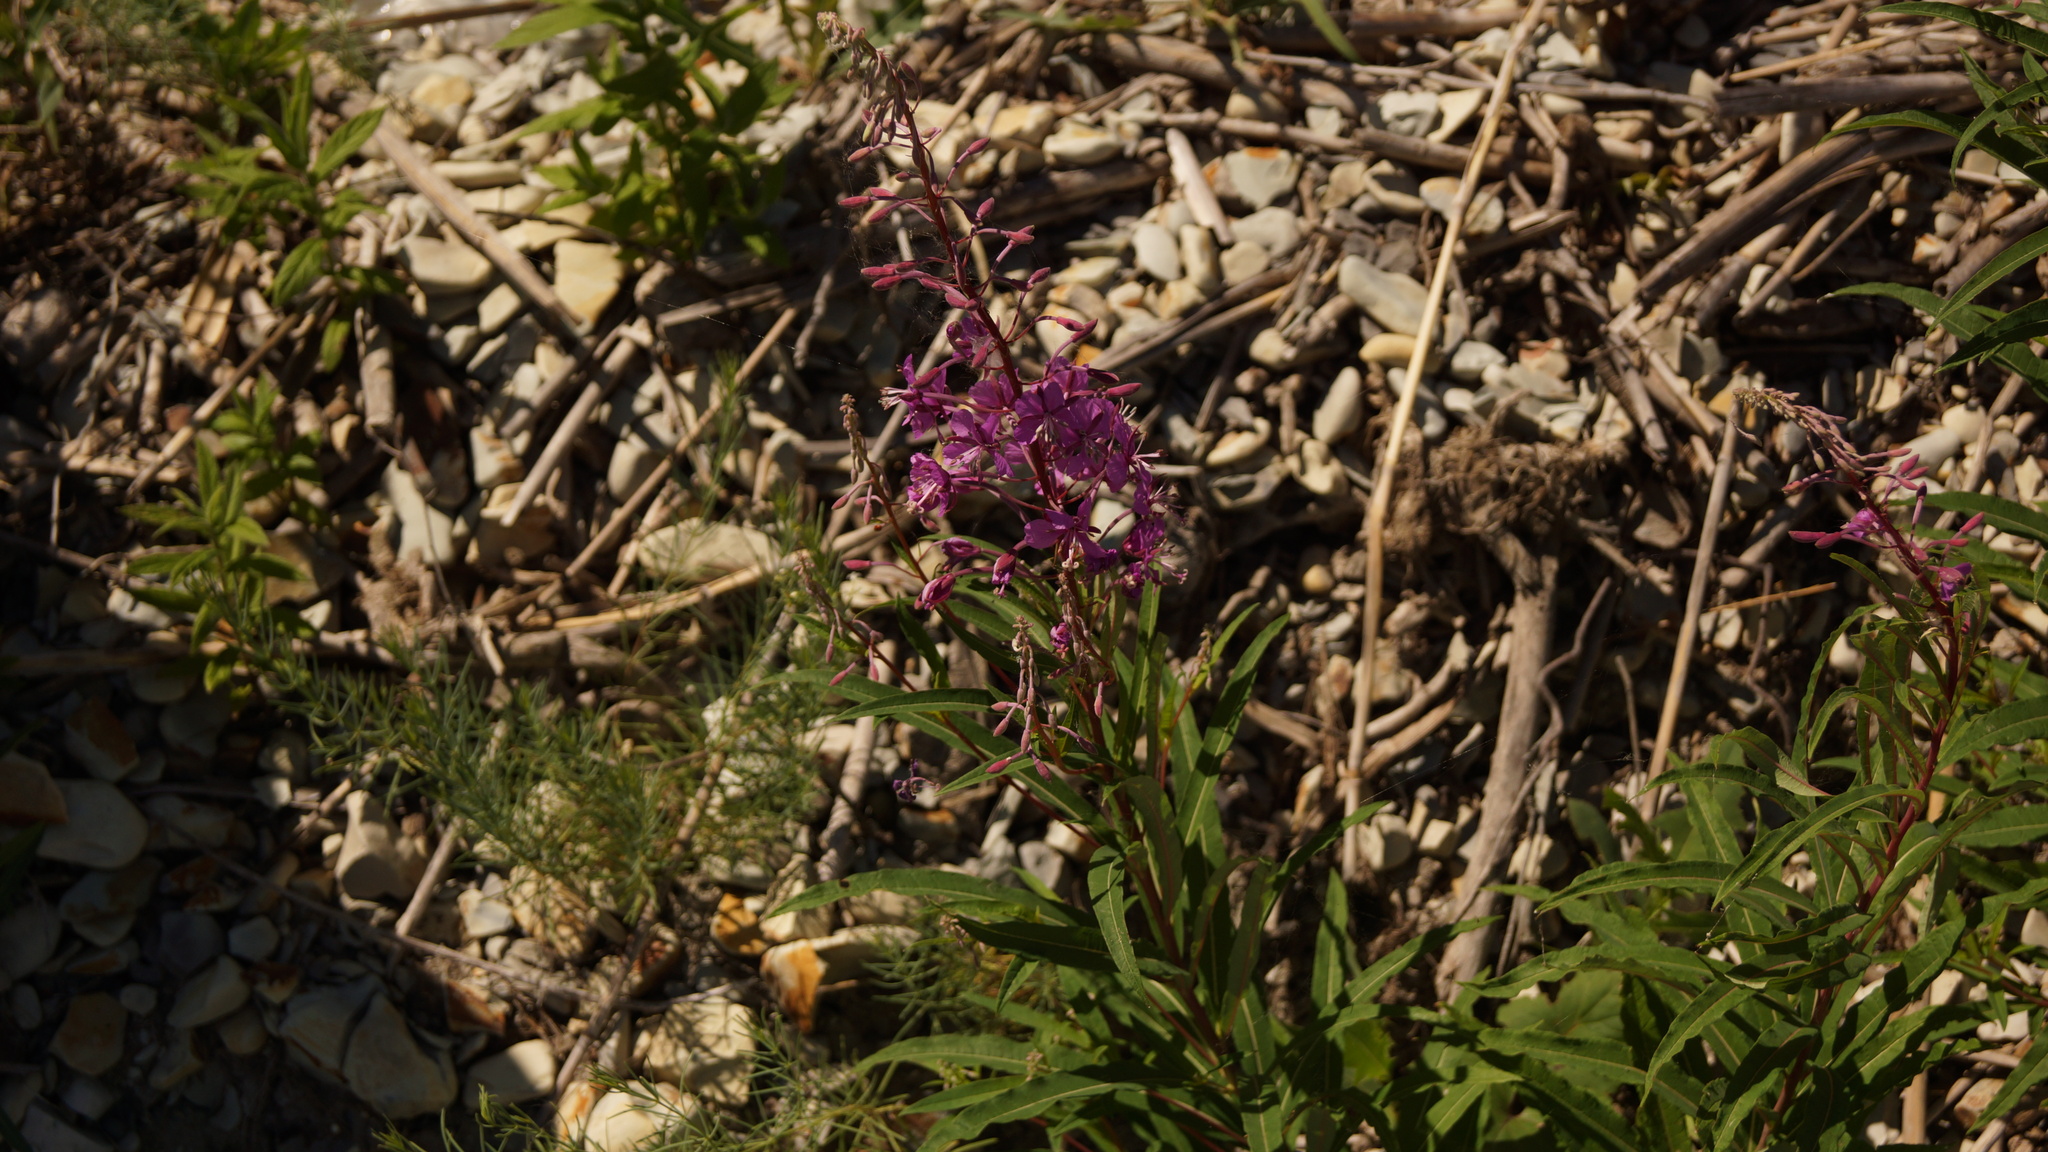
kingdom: Plantae
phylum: Tracheophyta
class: Magnoliopsida
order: Myrtales
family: Onagraceae
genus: Chamaenerion
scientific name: Chamaenerion angustifolium
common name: Fireweed
